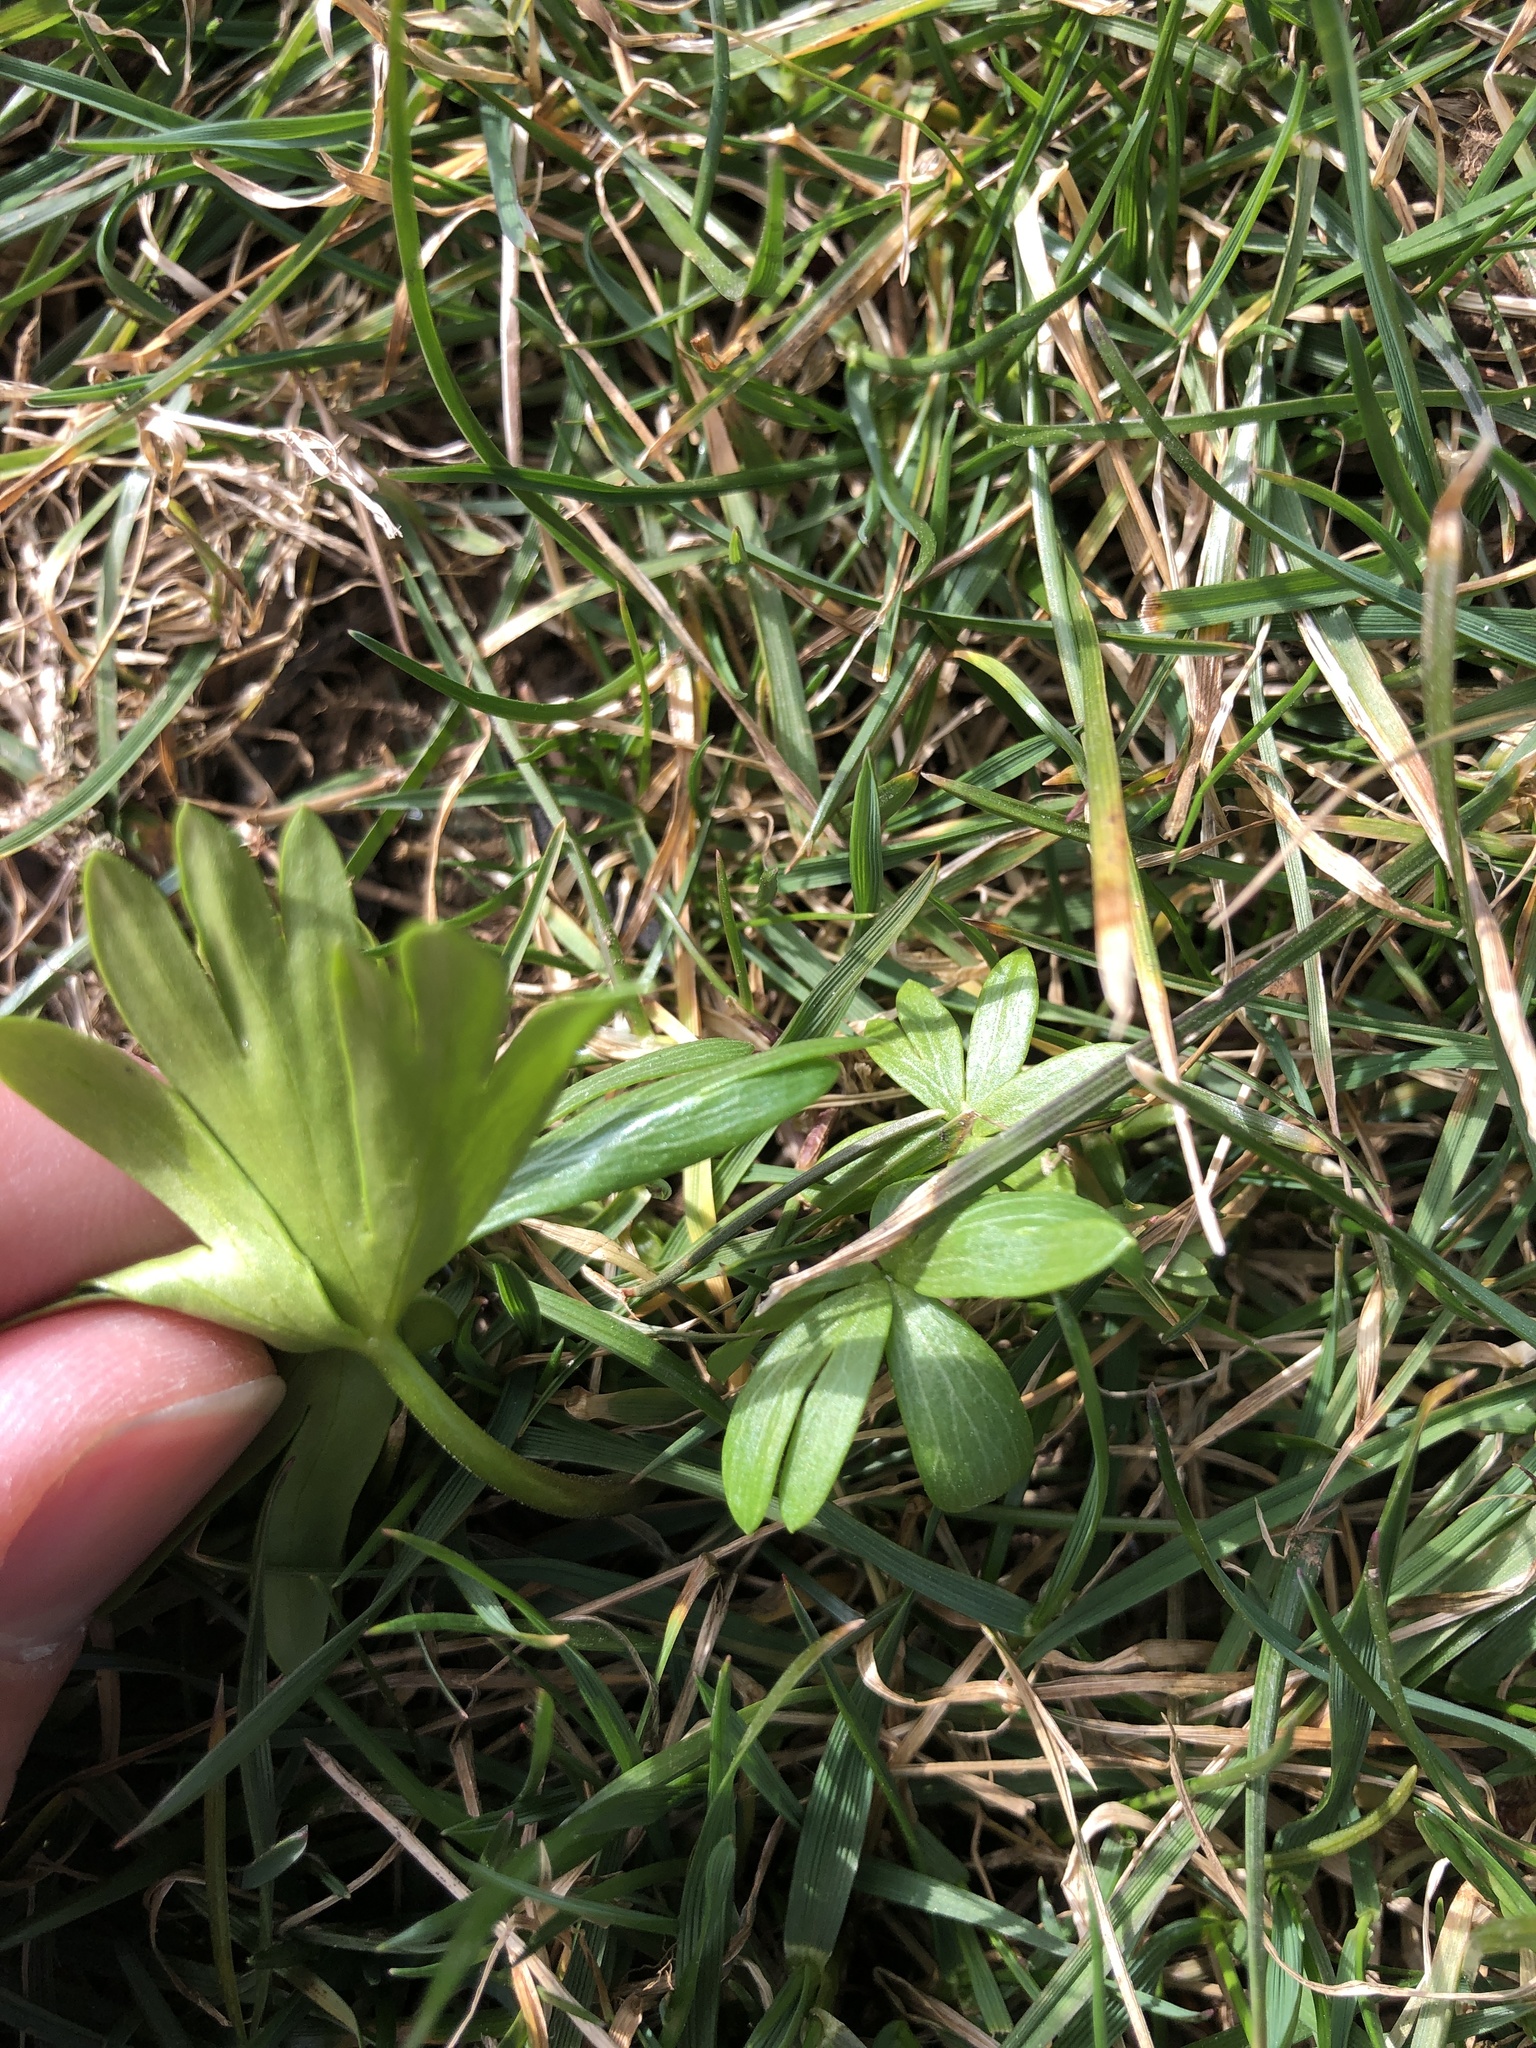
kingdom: Plantae
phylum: Tracheophyta
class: Magnoliopsida
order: Ranunculales
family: Ranunculaceae
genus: Eranthis
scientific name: Eranthis hyemalis
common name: Winter aconite
